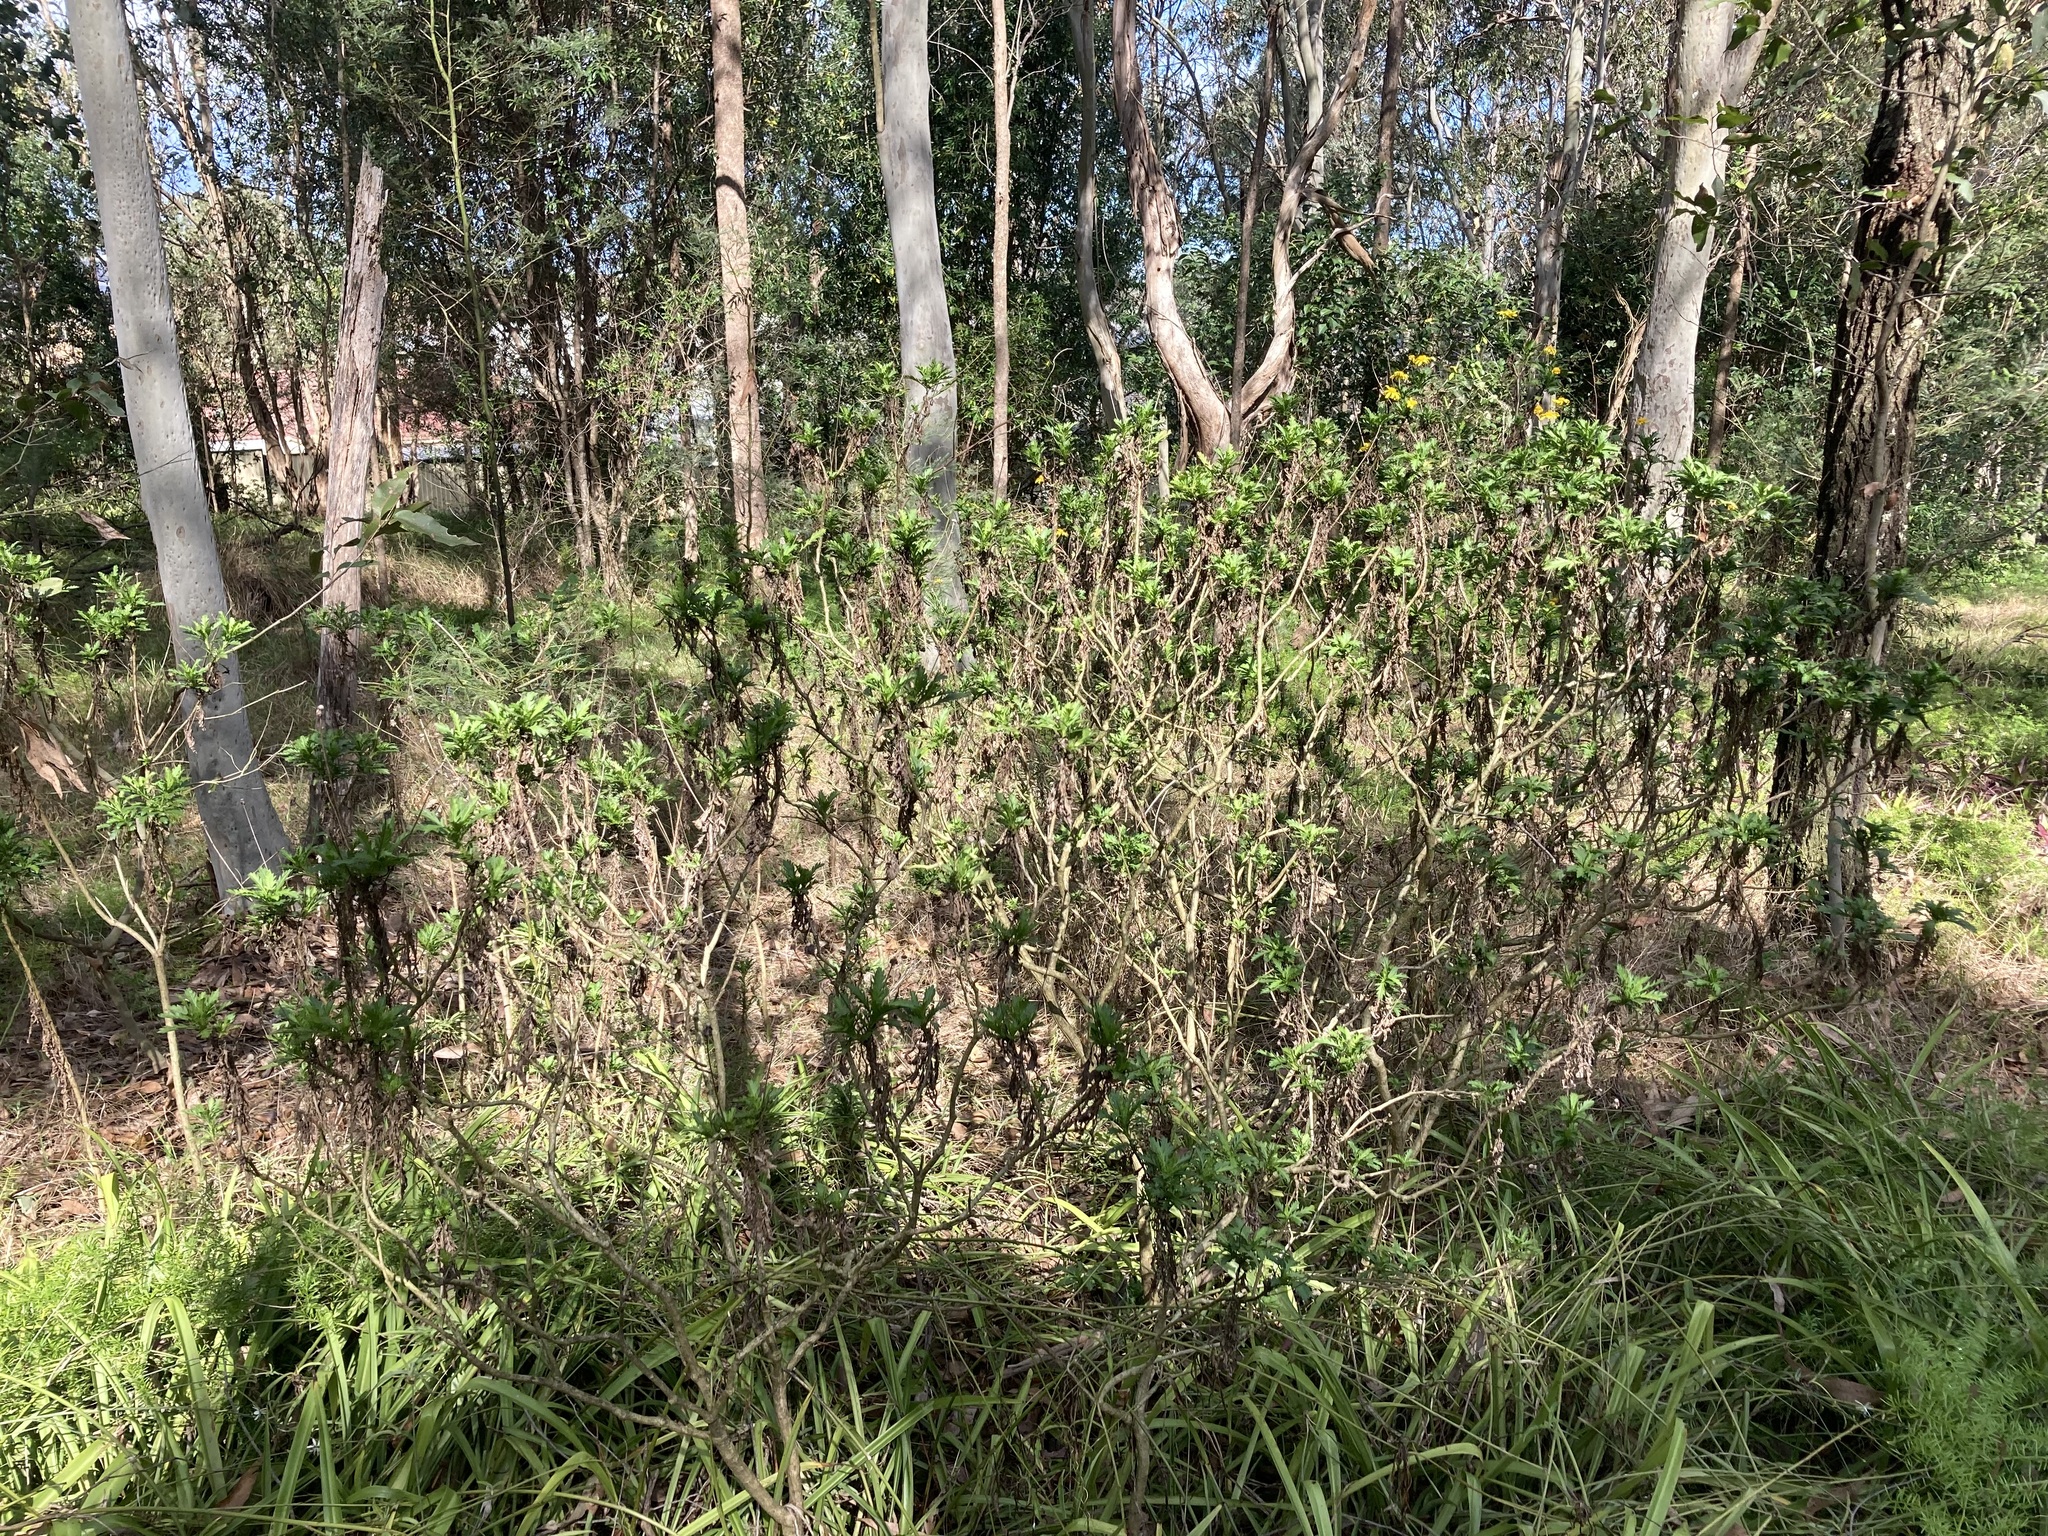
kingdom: Plantae
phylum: Tracheophyta
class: Magnoliopsida
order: Asterales
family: Asteraceae
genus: Euryops
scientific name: Euryops chrysanthemoides
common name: Bull's eye
